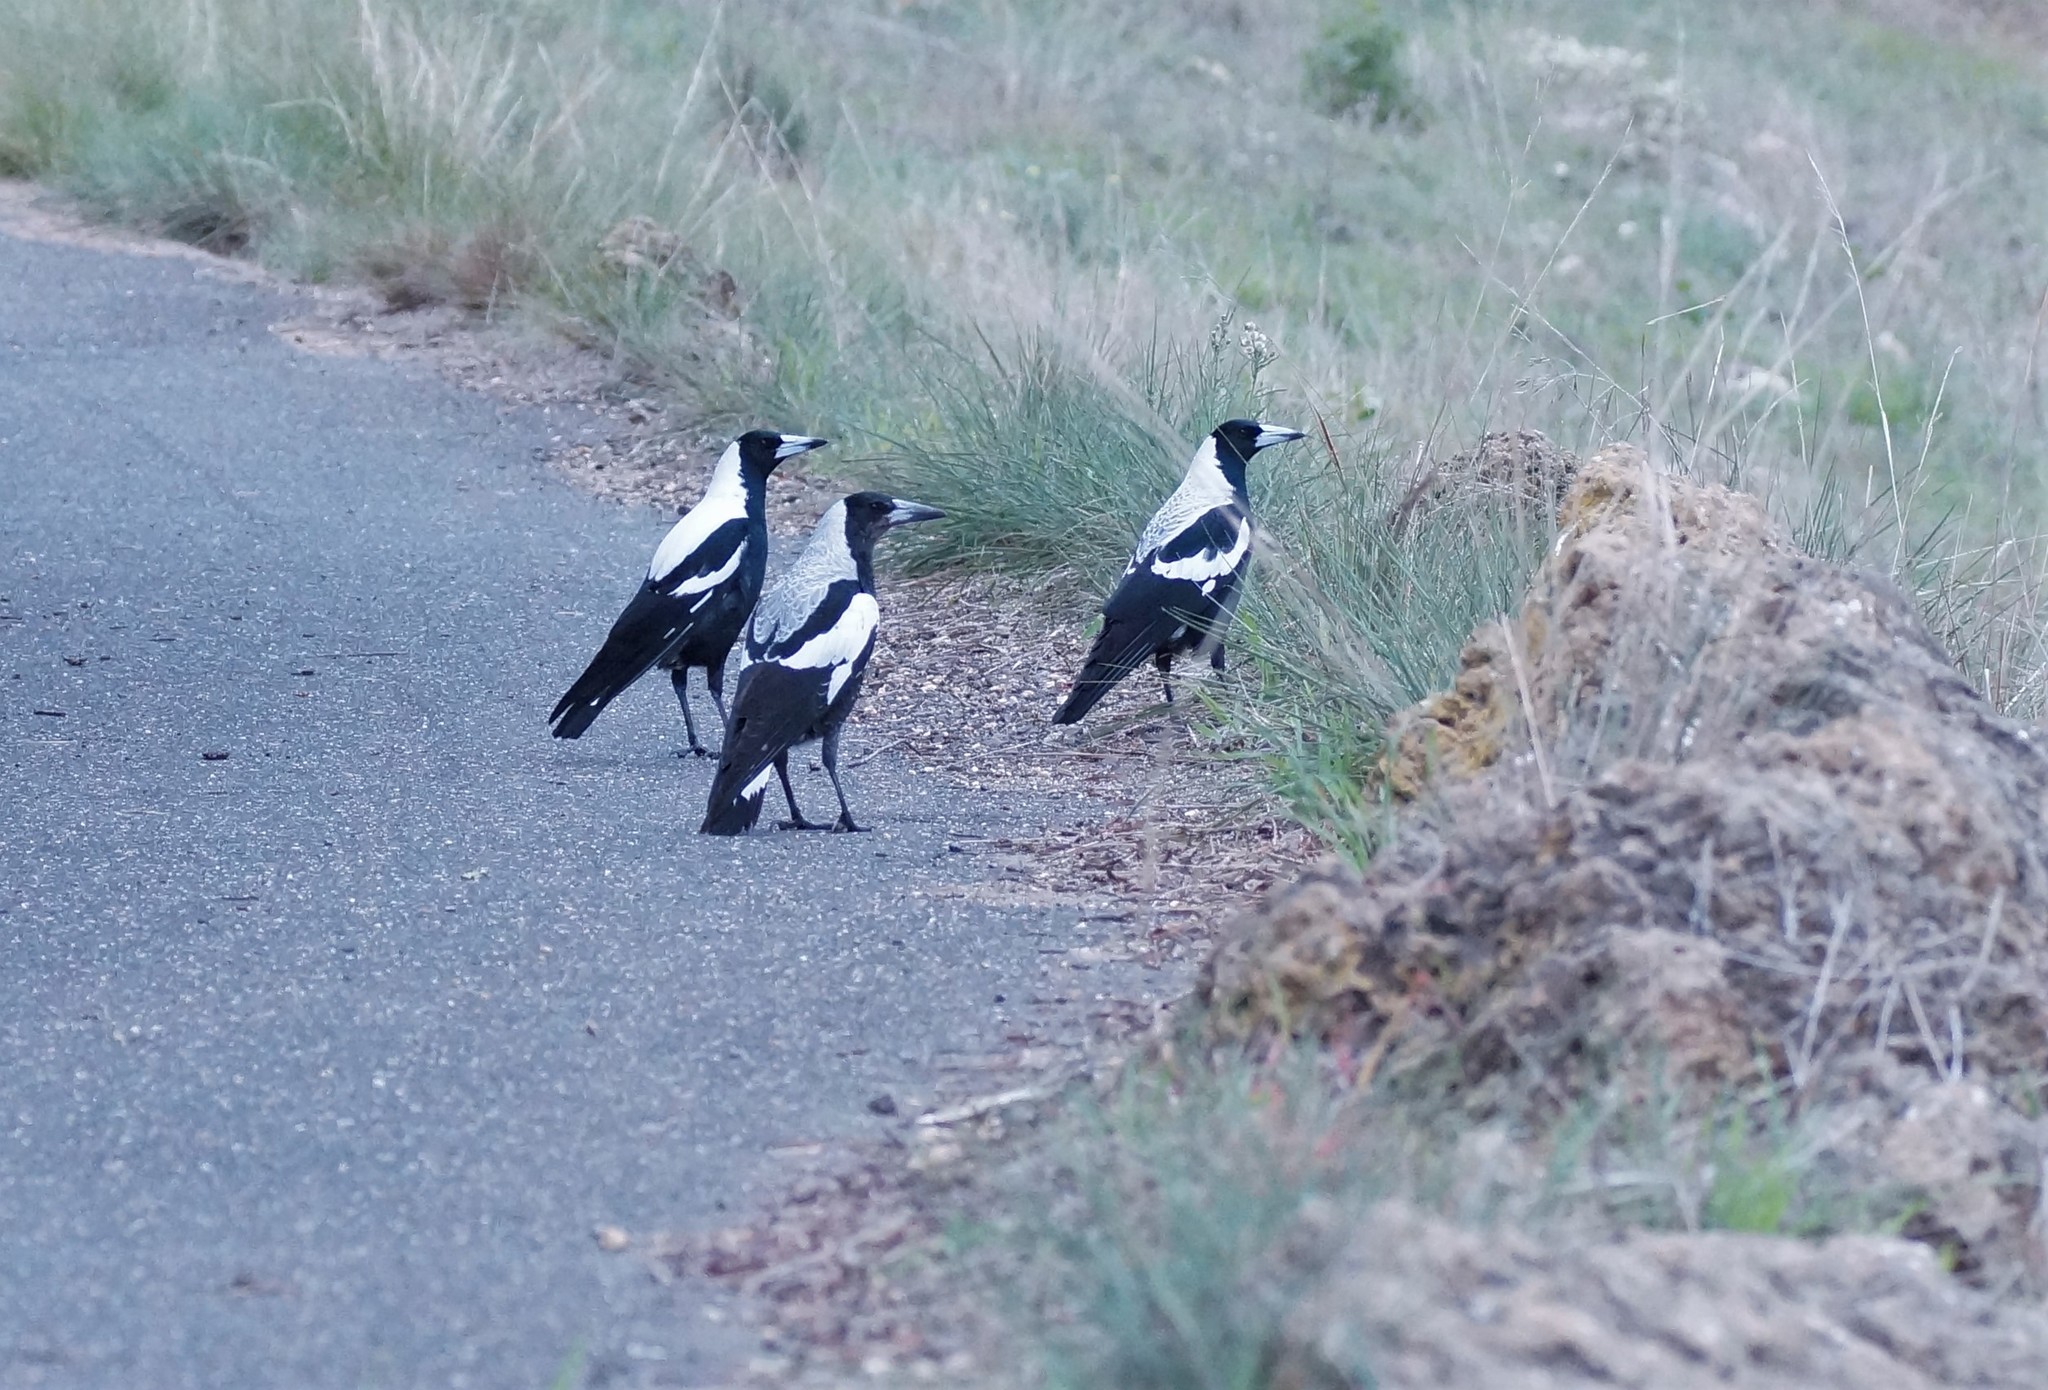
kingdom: Animalia
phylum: Chordata
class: Aves
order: Passeriformes
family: Cracticidae
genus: Gymnorhina
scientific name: Gymnorhina tibicen
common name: Australian magpie
